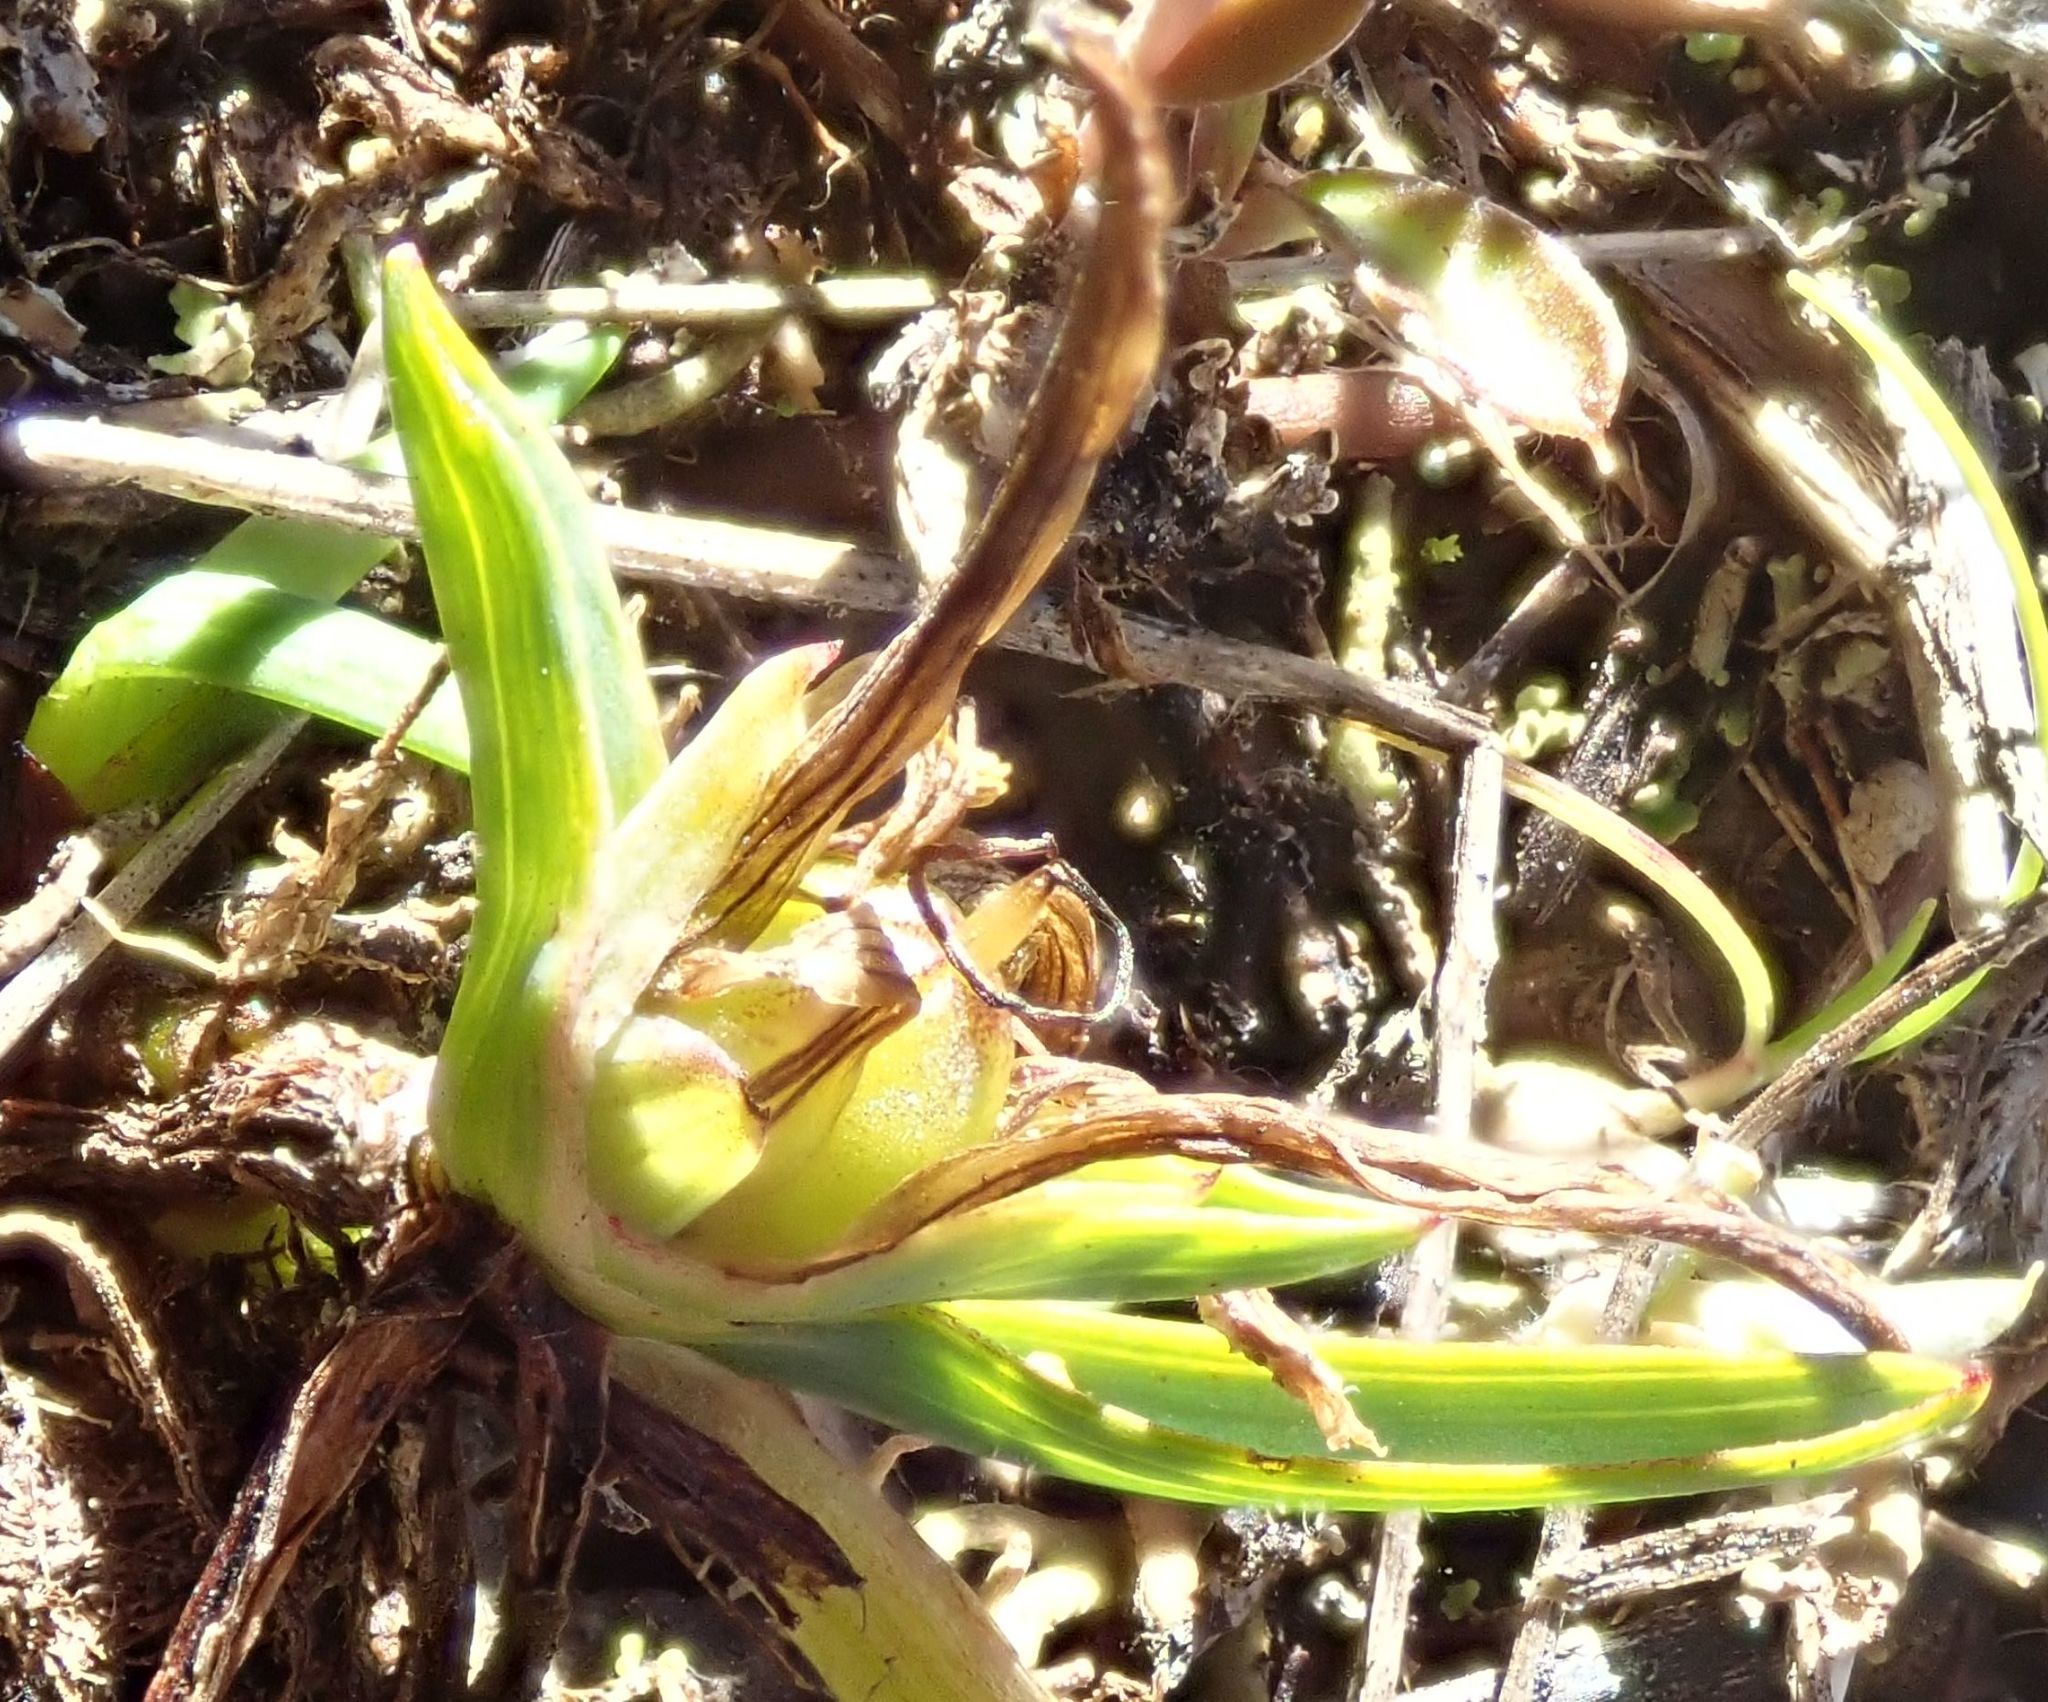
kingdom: Plantae
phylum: Tracheophyta
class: Liliopsida
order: Asparagales
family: Asphodelaceae
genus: Herpolirion
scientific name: Herpolirion novae-zelandiae
